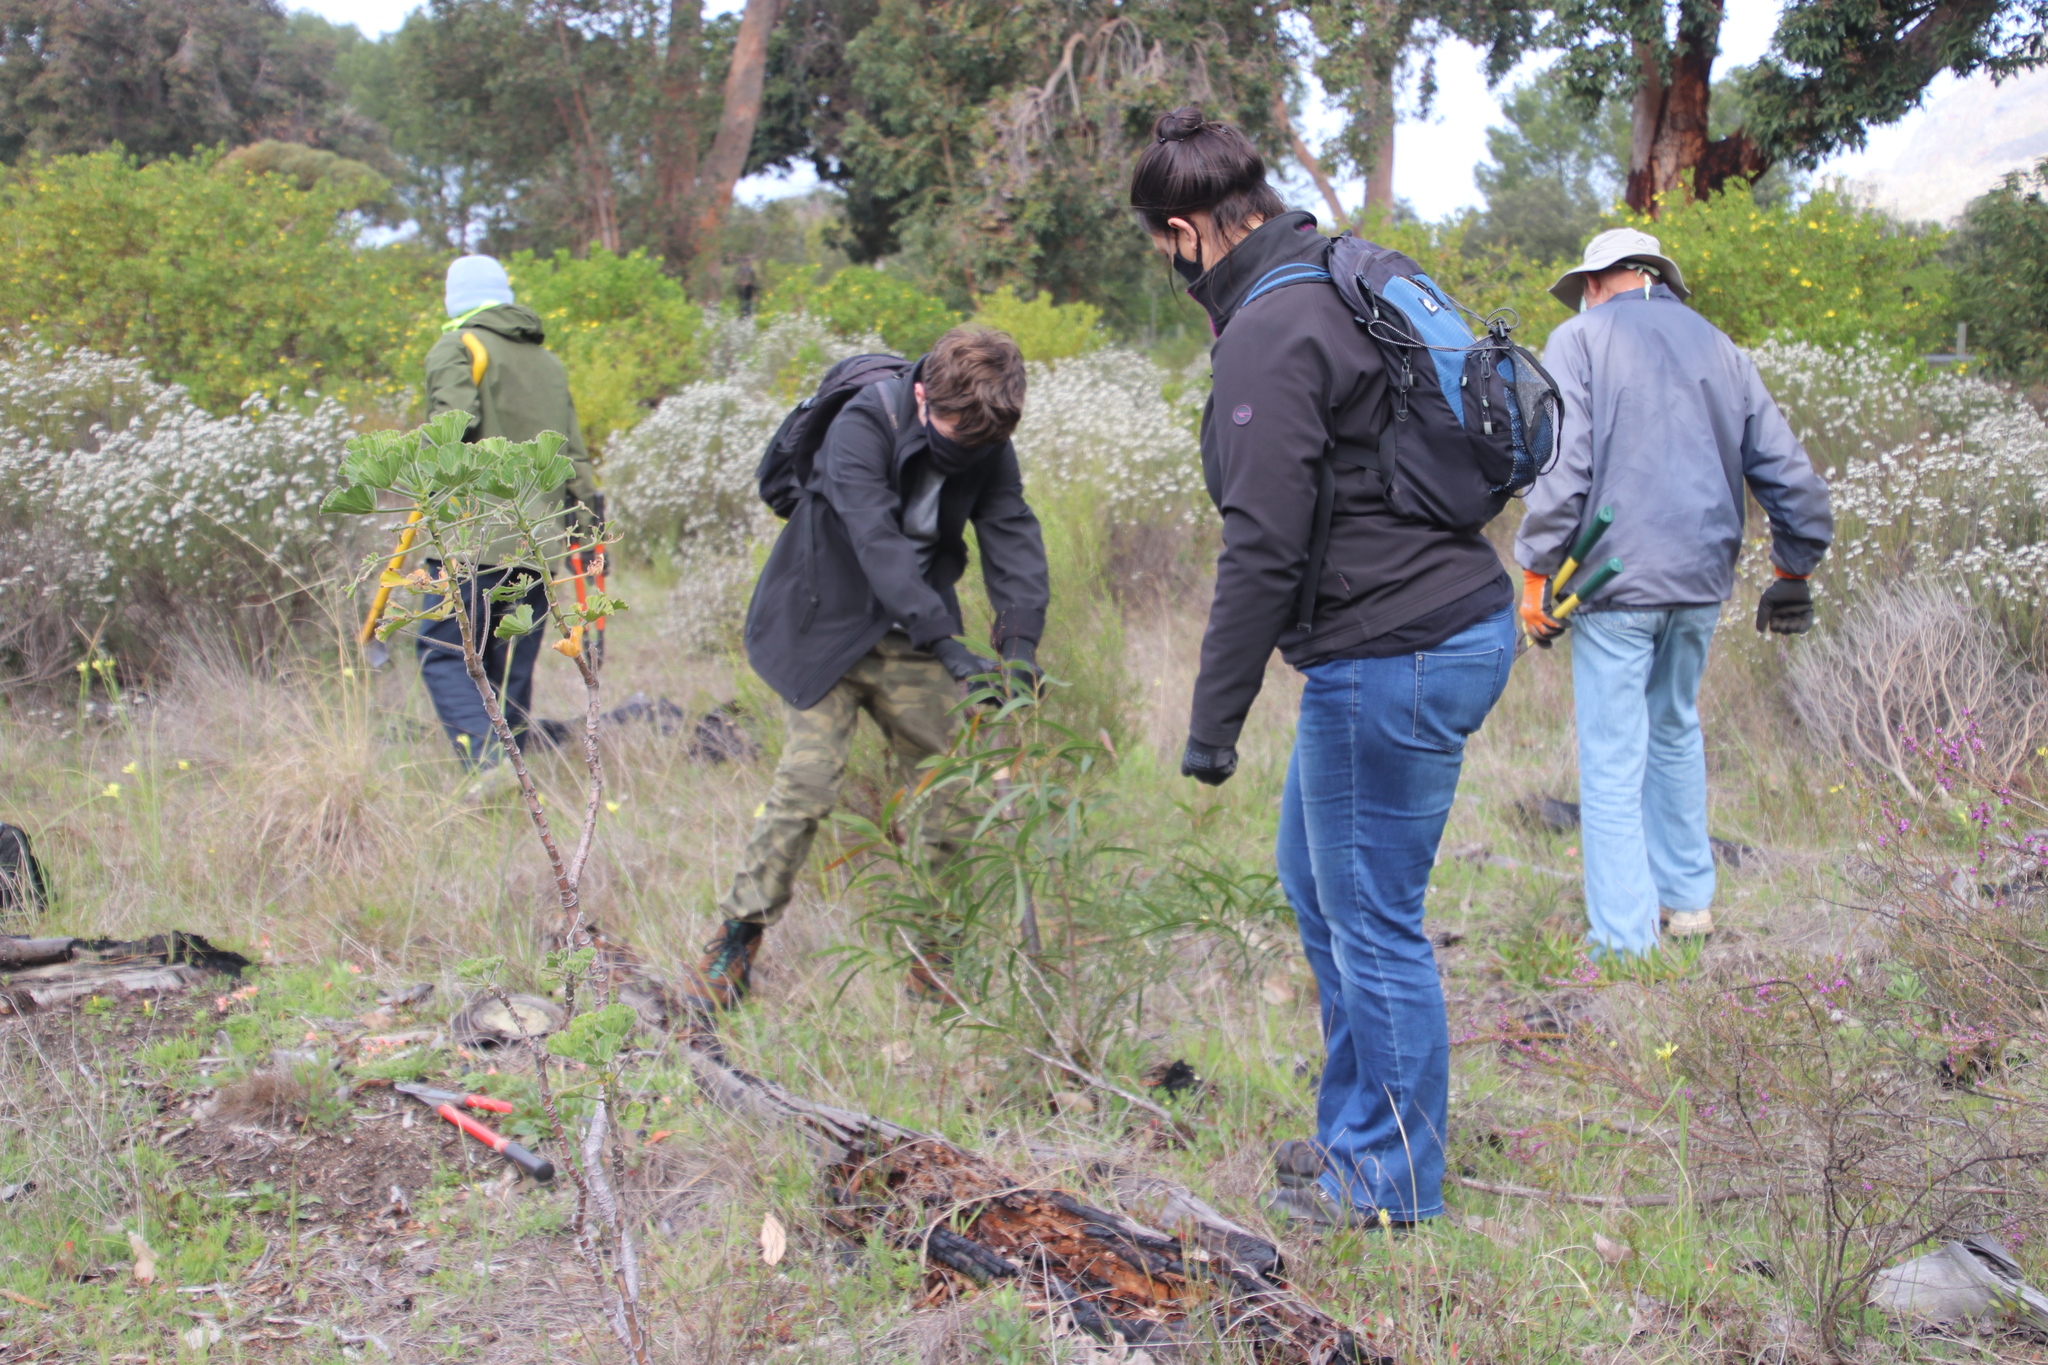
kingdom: Plantae
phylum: Tracheophyta
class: Magnoliopsida
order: Fabales
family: Fabaceae
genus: Acacia
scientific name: Acacia implexa
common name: Black wattle
